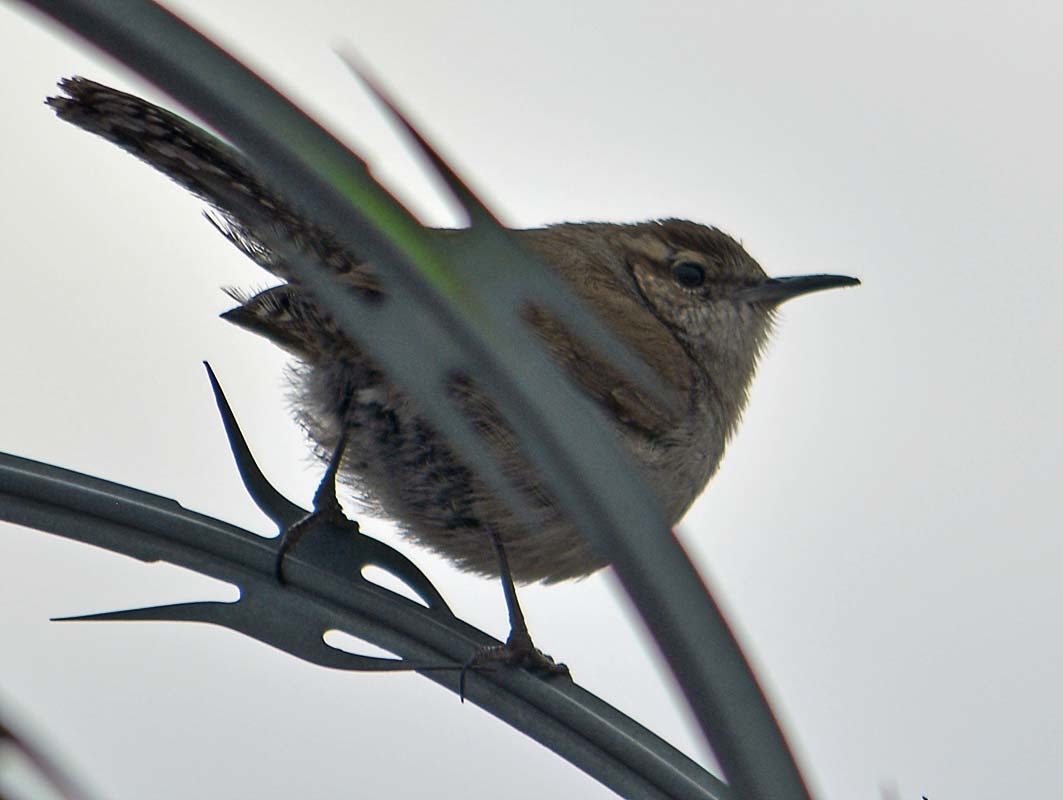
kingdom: Animalia
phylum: Chordata
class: Aves
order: Passeriformes
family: Troglodytidae
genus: Thryomanes
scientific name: Thryomanes bewickii
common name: Bewick's wren
